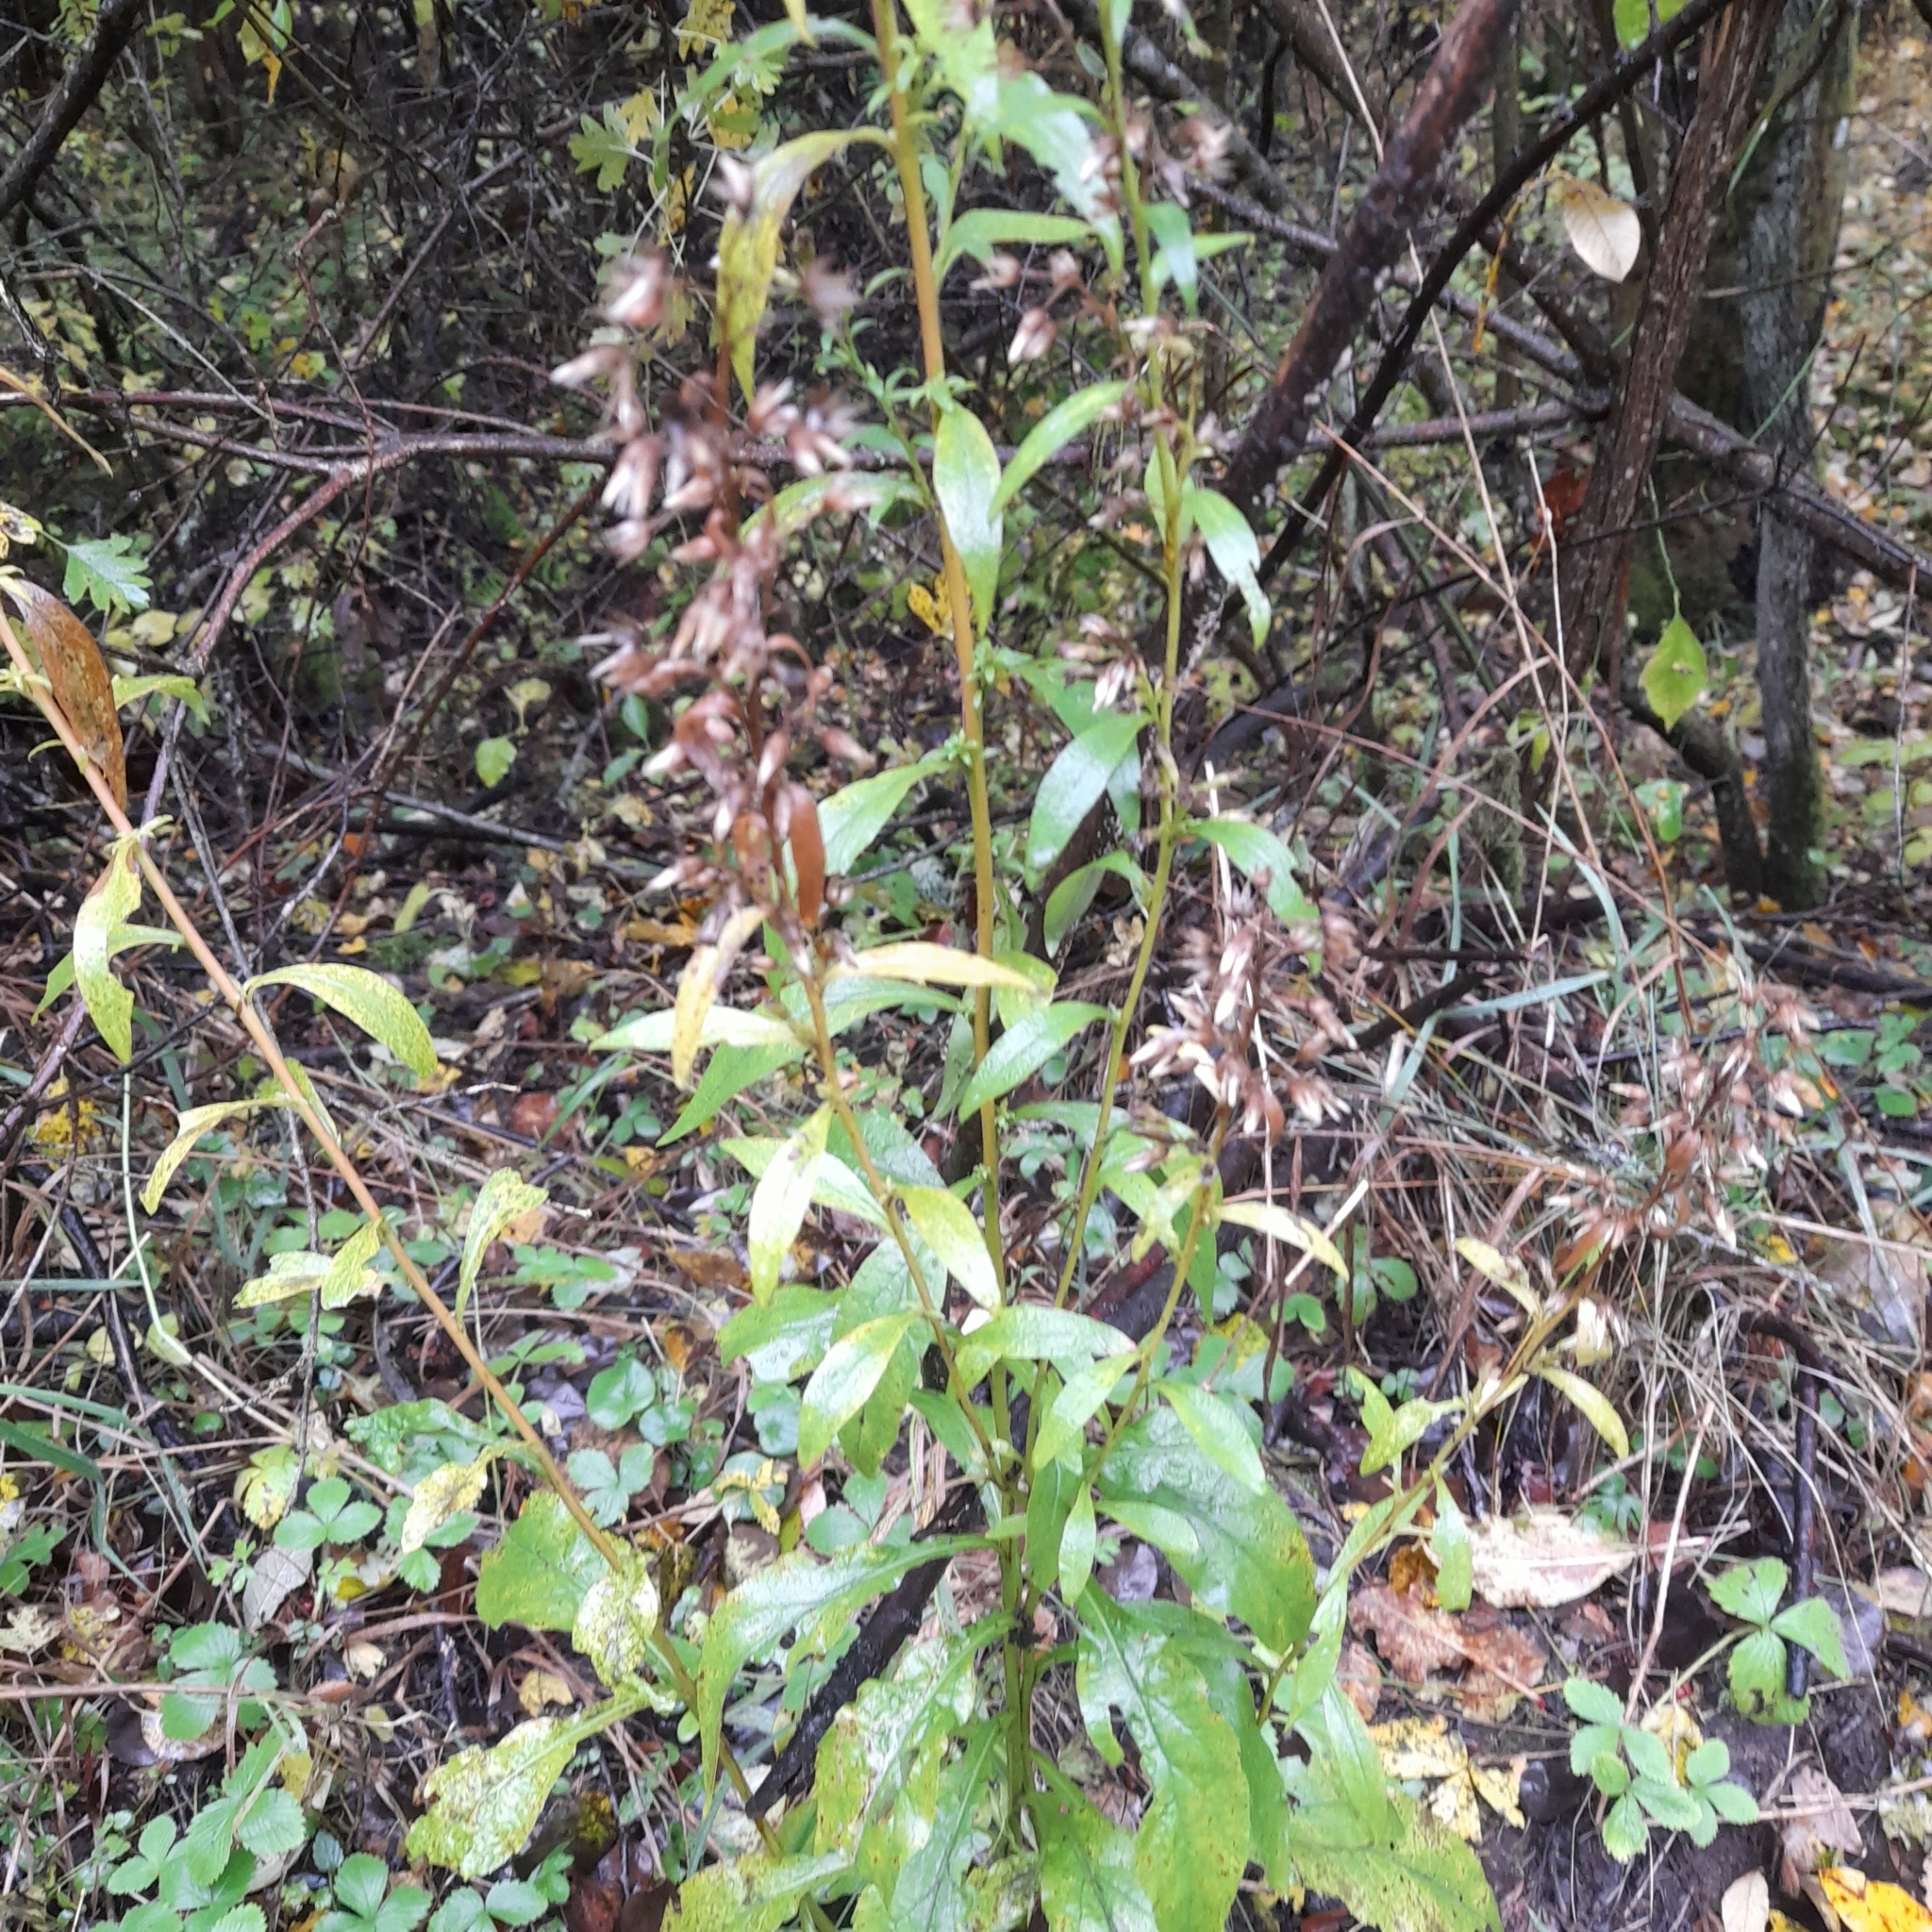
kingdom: Plantae
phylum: Tracheophyta
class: Magnoliopsida
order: Asterales
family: Asteraceae
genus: Solidago
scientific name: Solidago virgaurea
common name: Goldenrod
